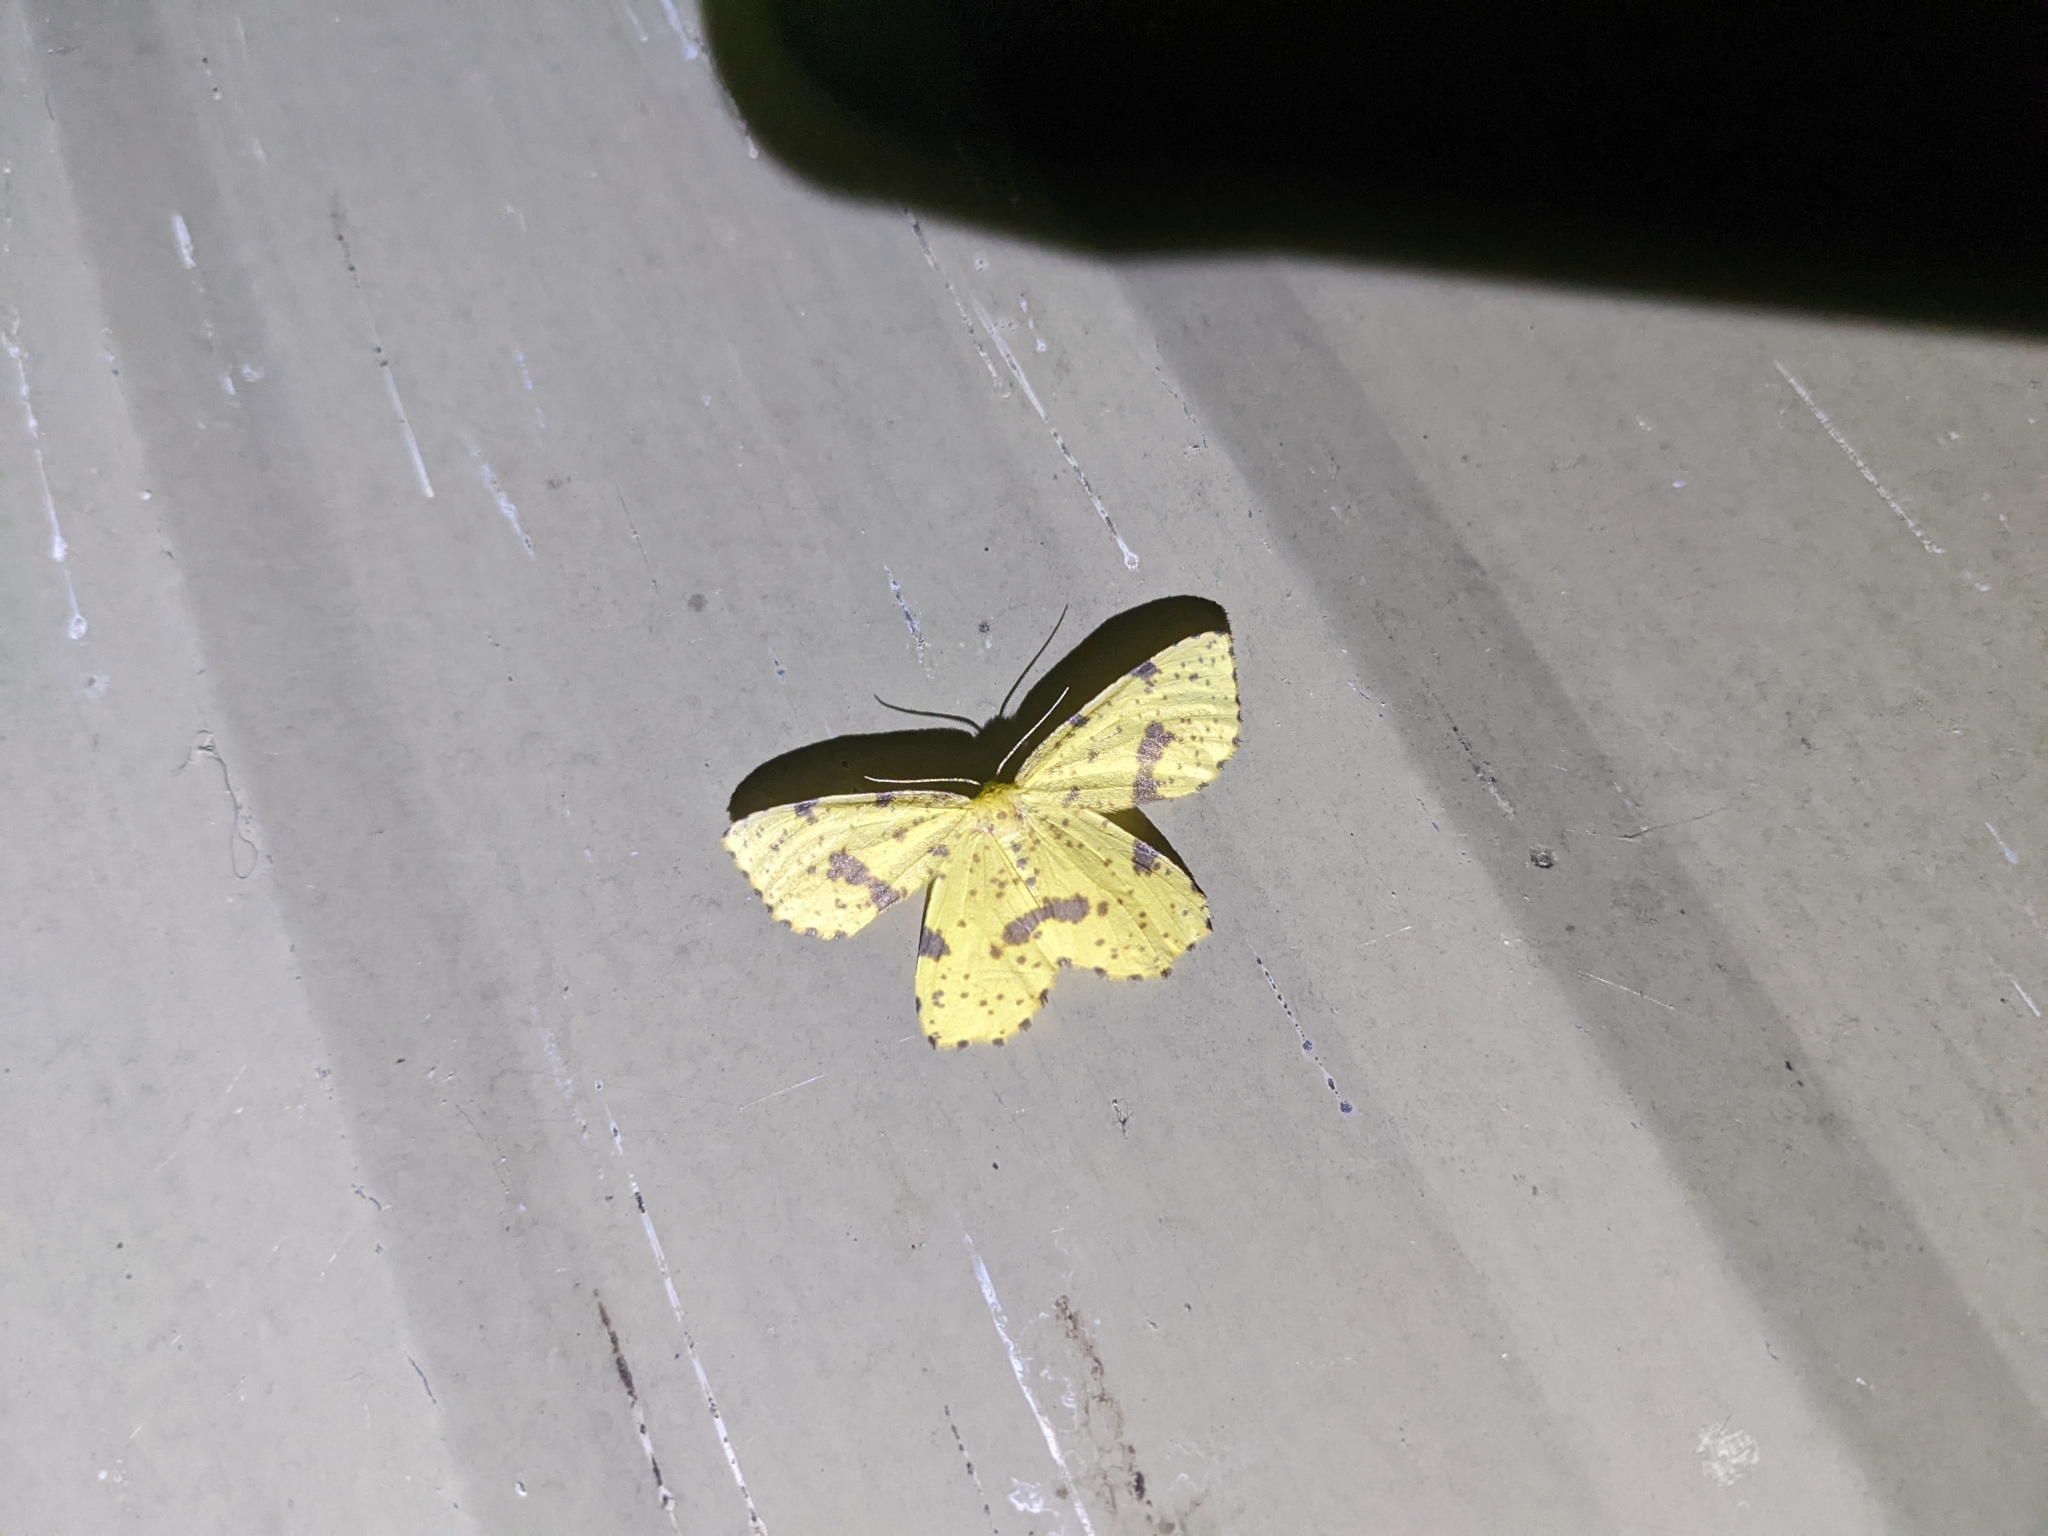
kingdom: Animalia
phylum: Arthropoda
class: Insecta
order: Lepidoptera
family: Geometridae
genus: Xanthotype
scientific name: Xanthotype
